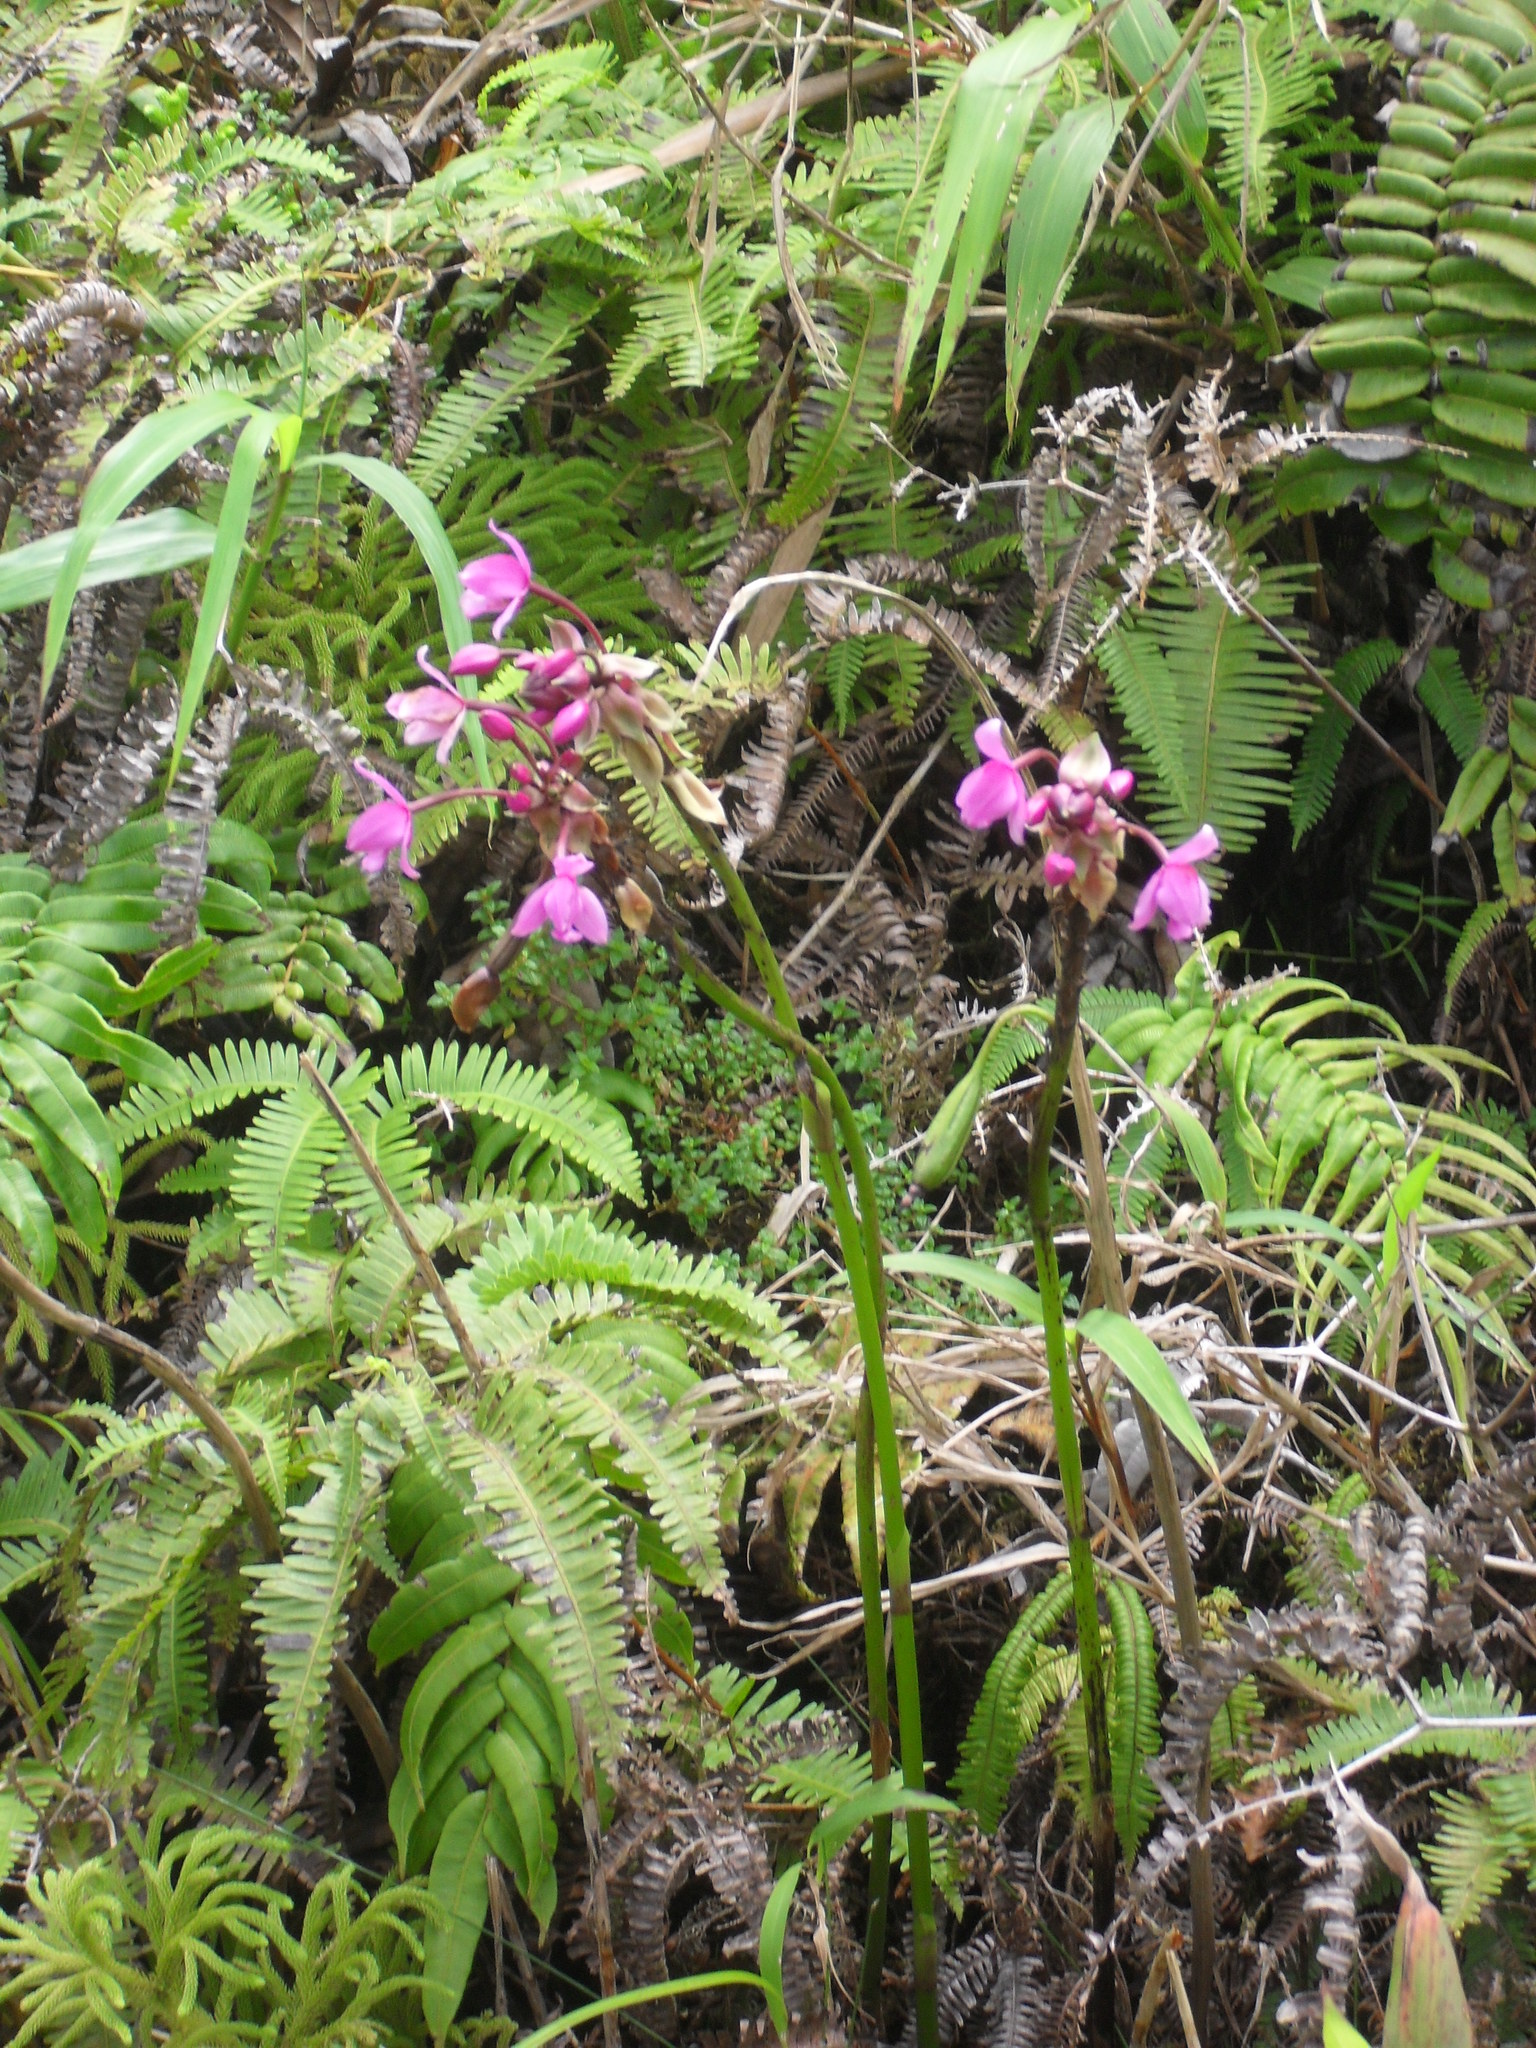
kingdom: Plantae
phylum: Tracheophyta
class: Liliopsida
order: Asparagales
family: Orchidaceae
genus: Spathoglottis
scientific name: Spathoglottis plicata
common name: Philippine ground orchid
